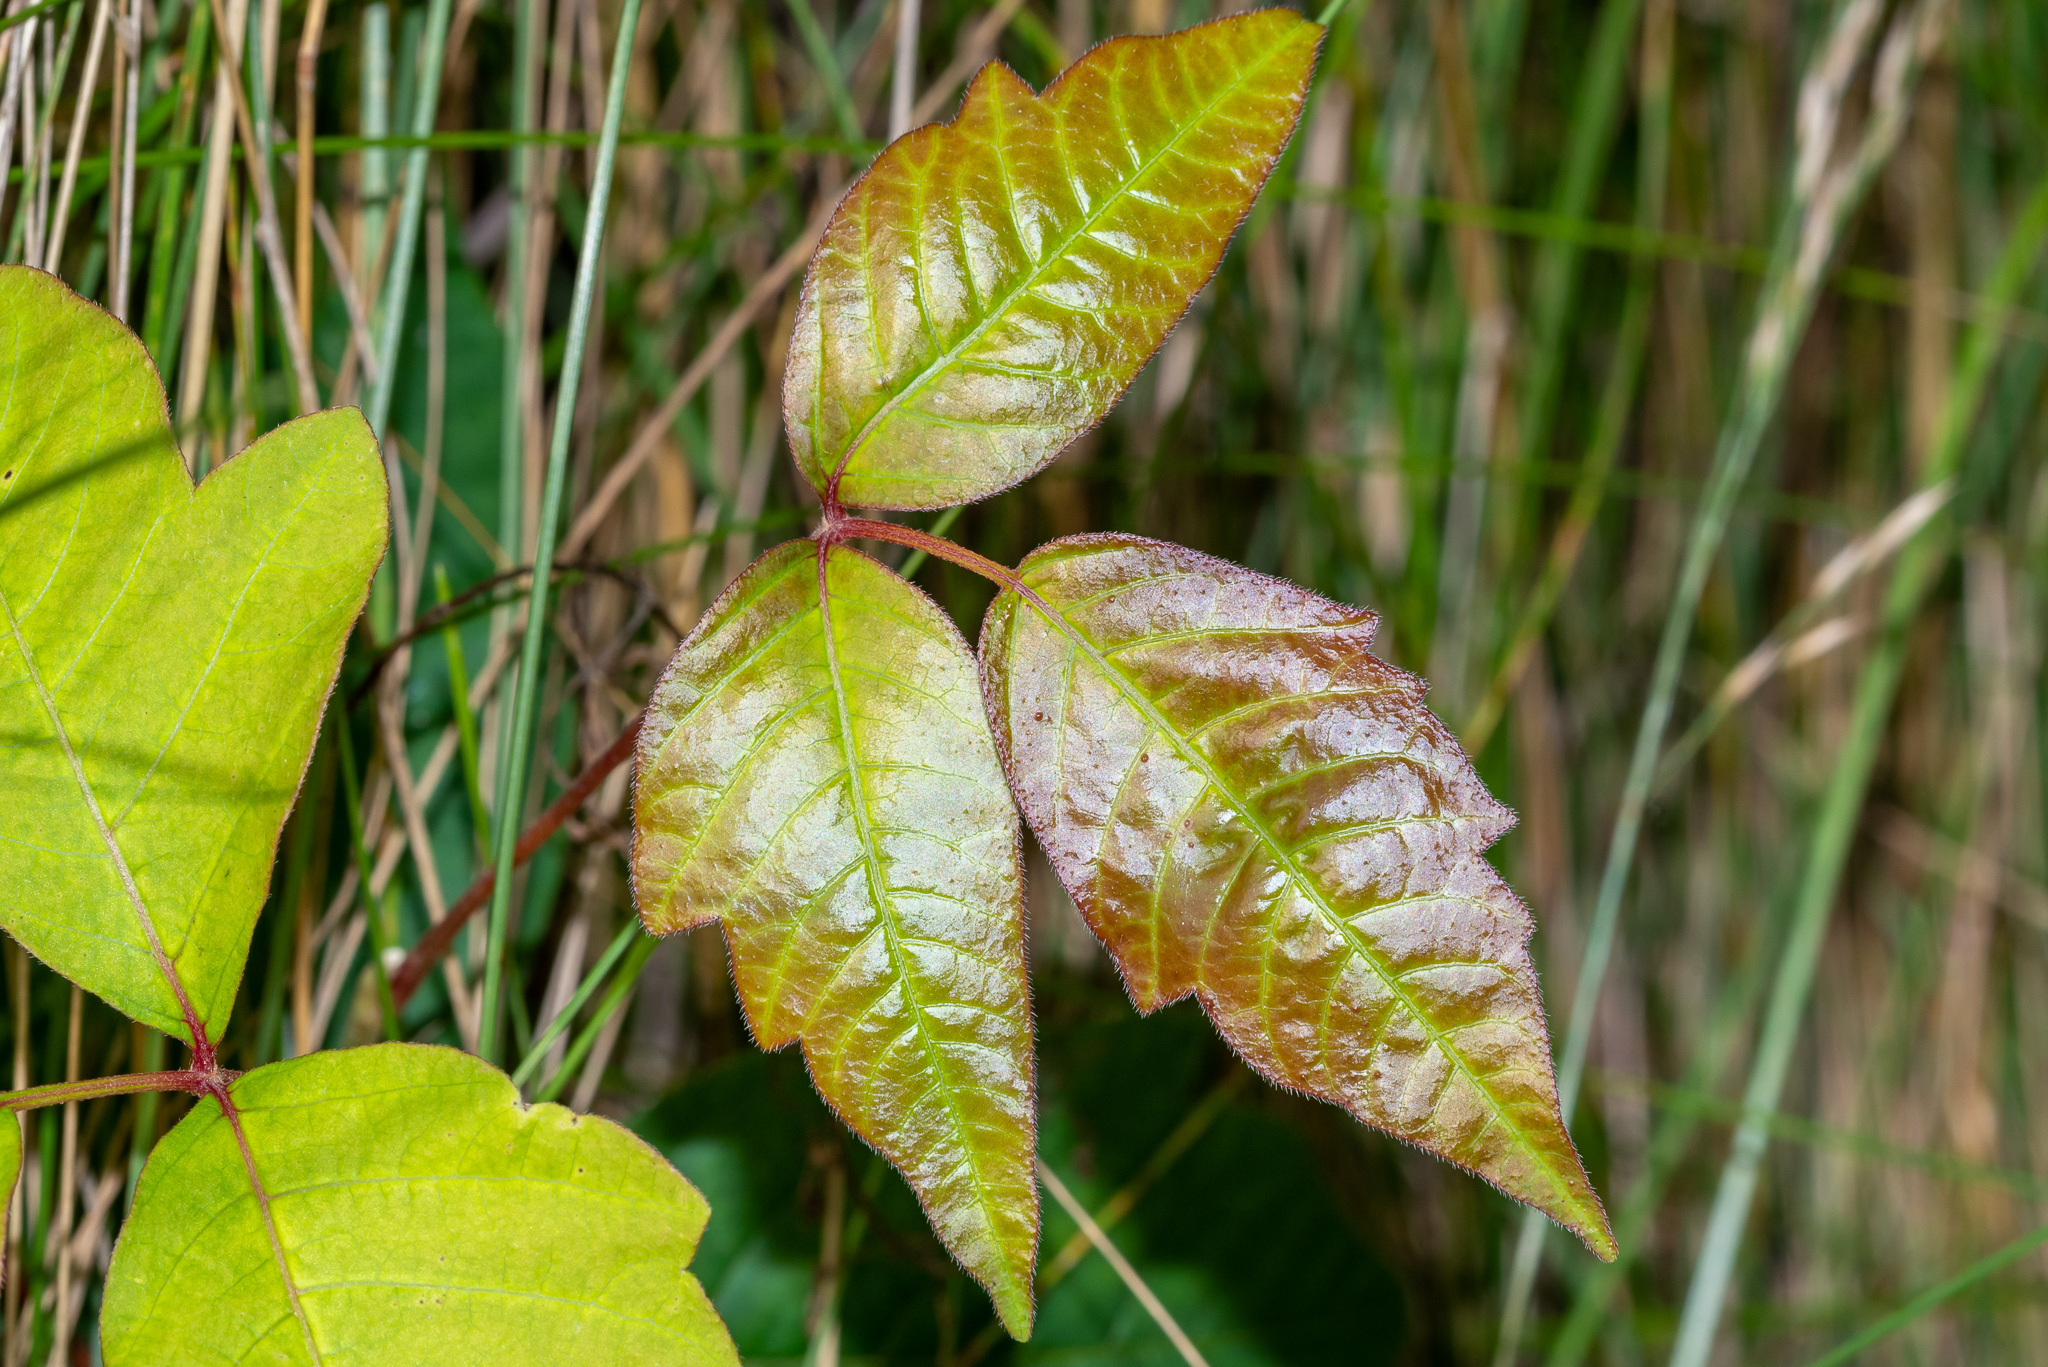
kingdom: Plantae
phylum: Tracheophyta
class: Magnoliopsida
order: Sapindales
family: Anacardiaceae
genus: Toxicodendron
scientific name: Toxicodendron radicans
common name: Poison ivy
